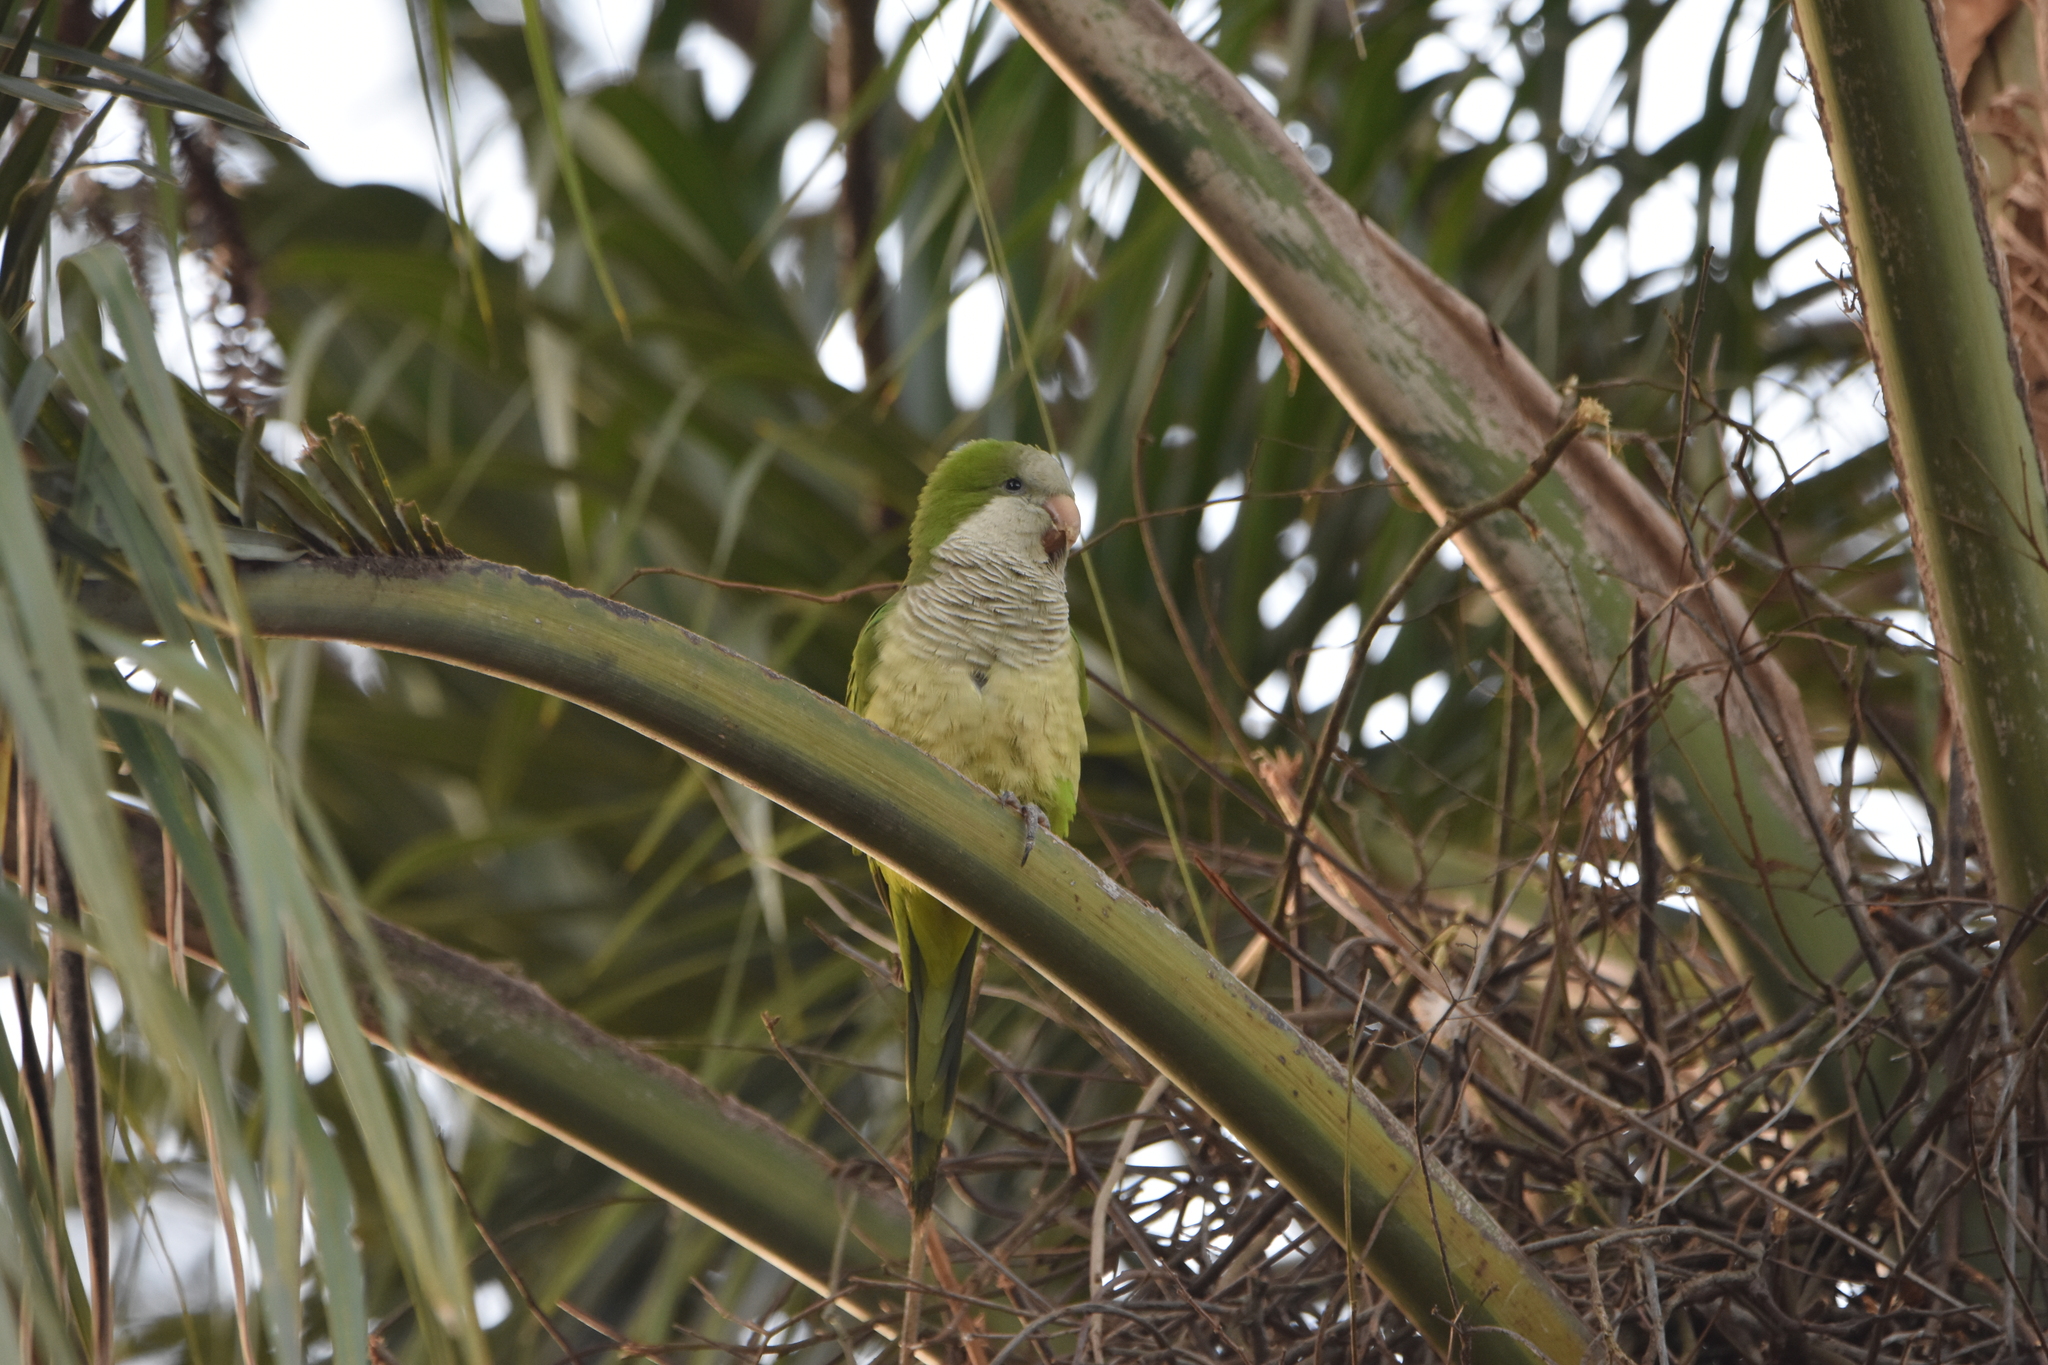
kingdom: Animalia
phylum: Chordata
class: Aves
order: Psittaciformes
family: Psittacidae
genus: Myiopsitta
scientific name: Myiopsitta monachus
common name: Monk parakeet
